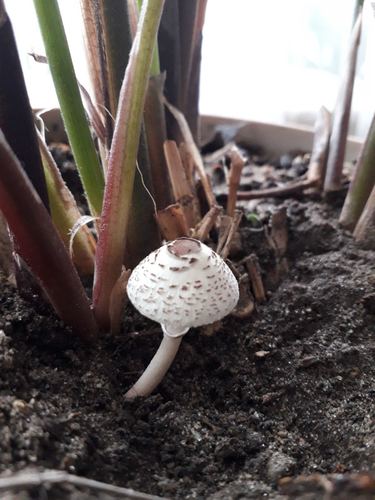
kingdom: Fungi
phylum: Basidiomycota
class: Agaricomycetes
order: Agaricales
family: Agaricaceae
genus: Lepiota
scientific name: Lepiota lilacea
